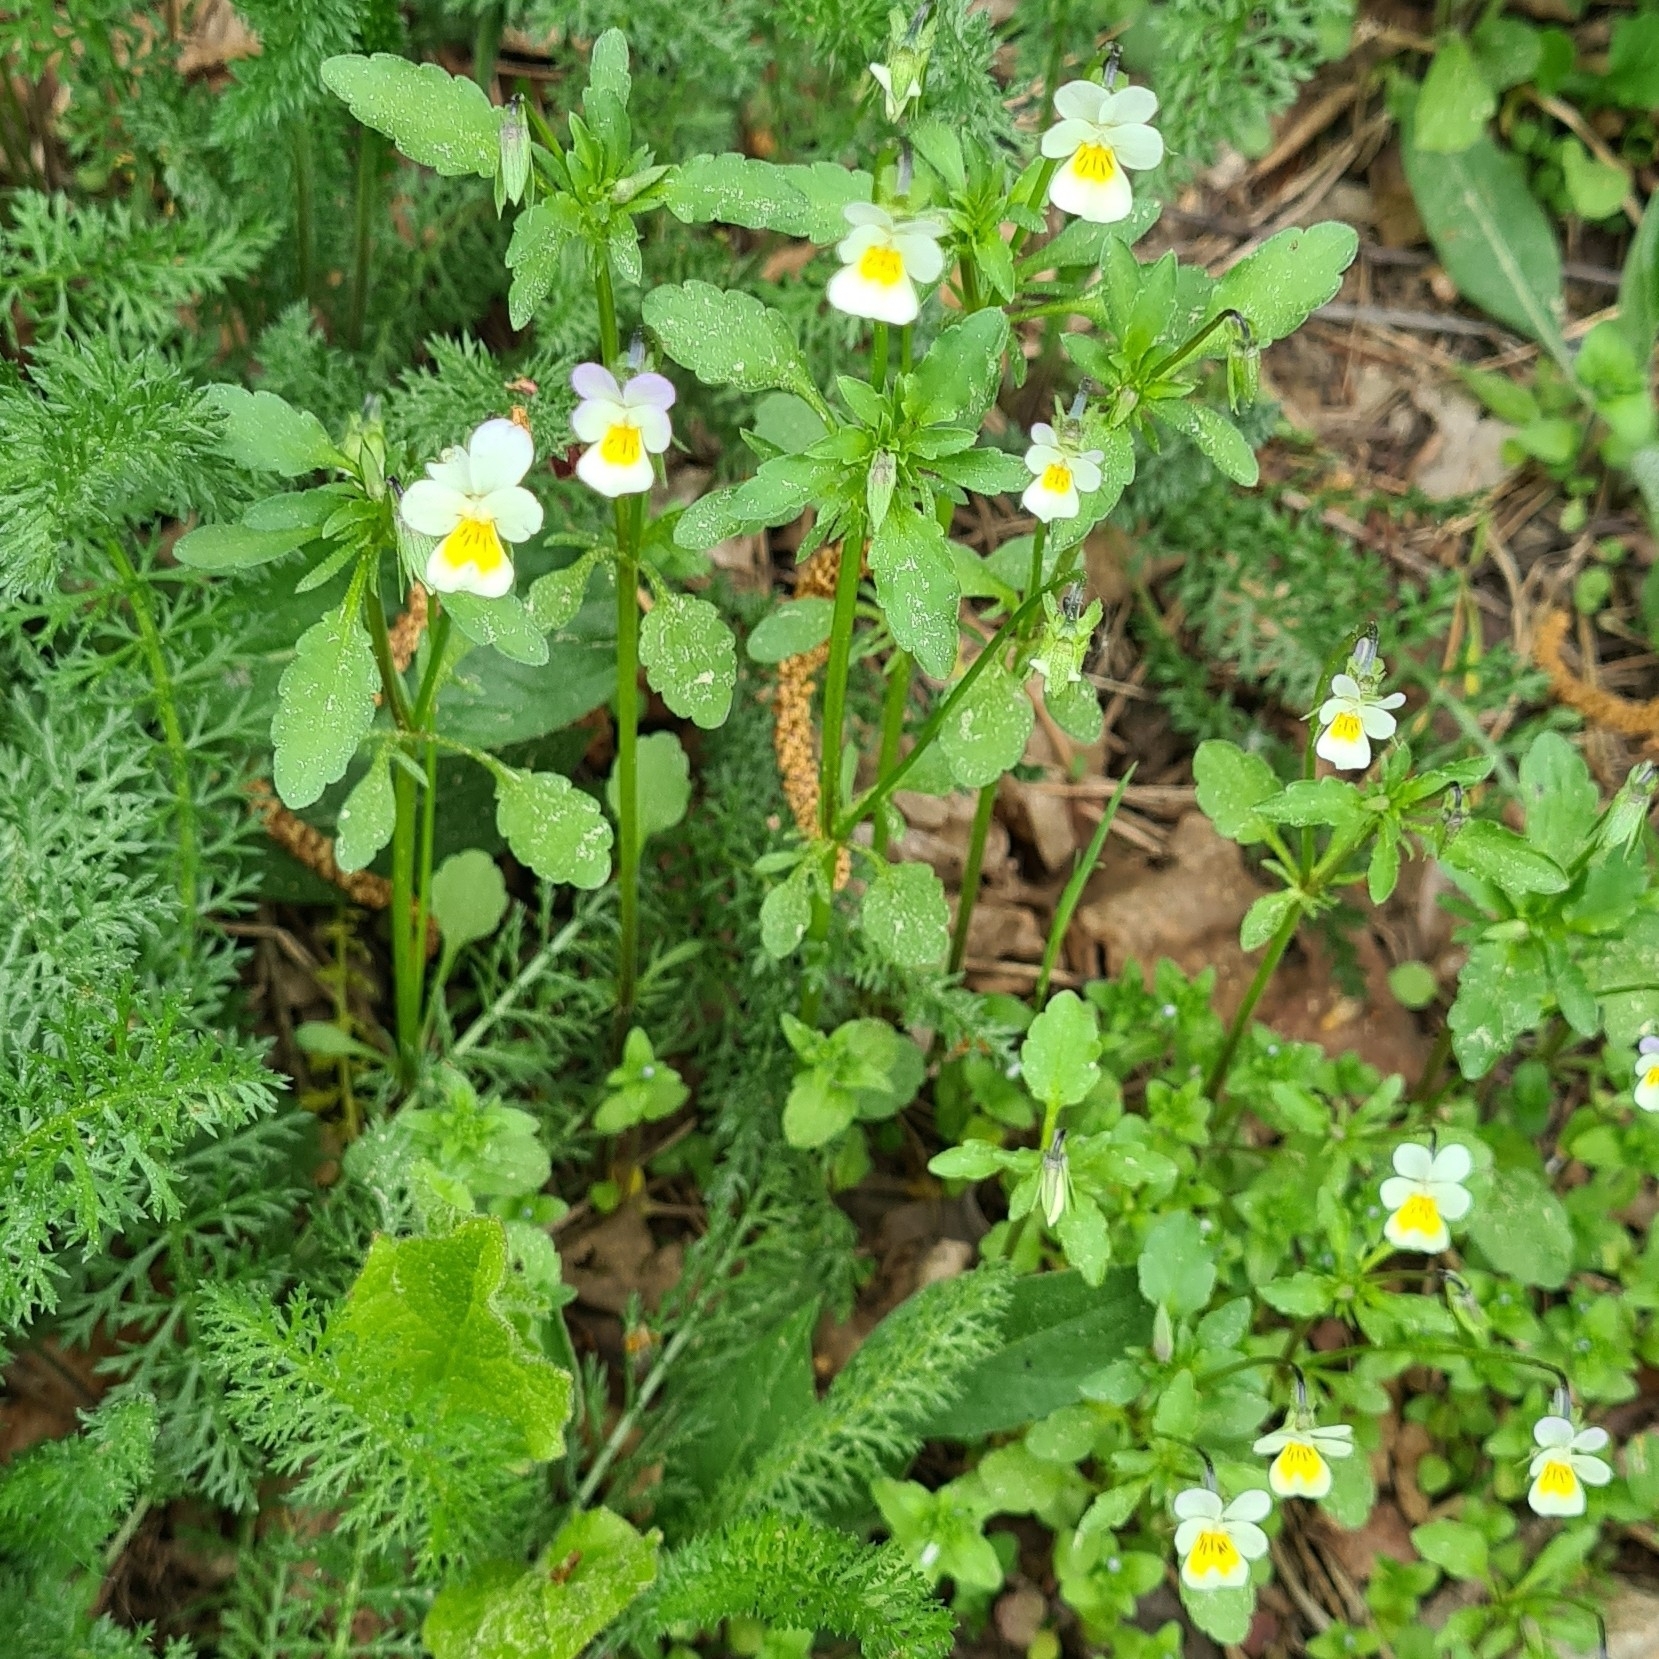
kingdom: Plantae
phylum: Tracheophyta
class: Magnoliopsida
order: Malpighiales
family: Violaceae
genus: Viola
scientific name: Viola arvensis
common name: Field pansy
